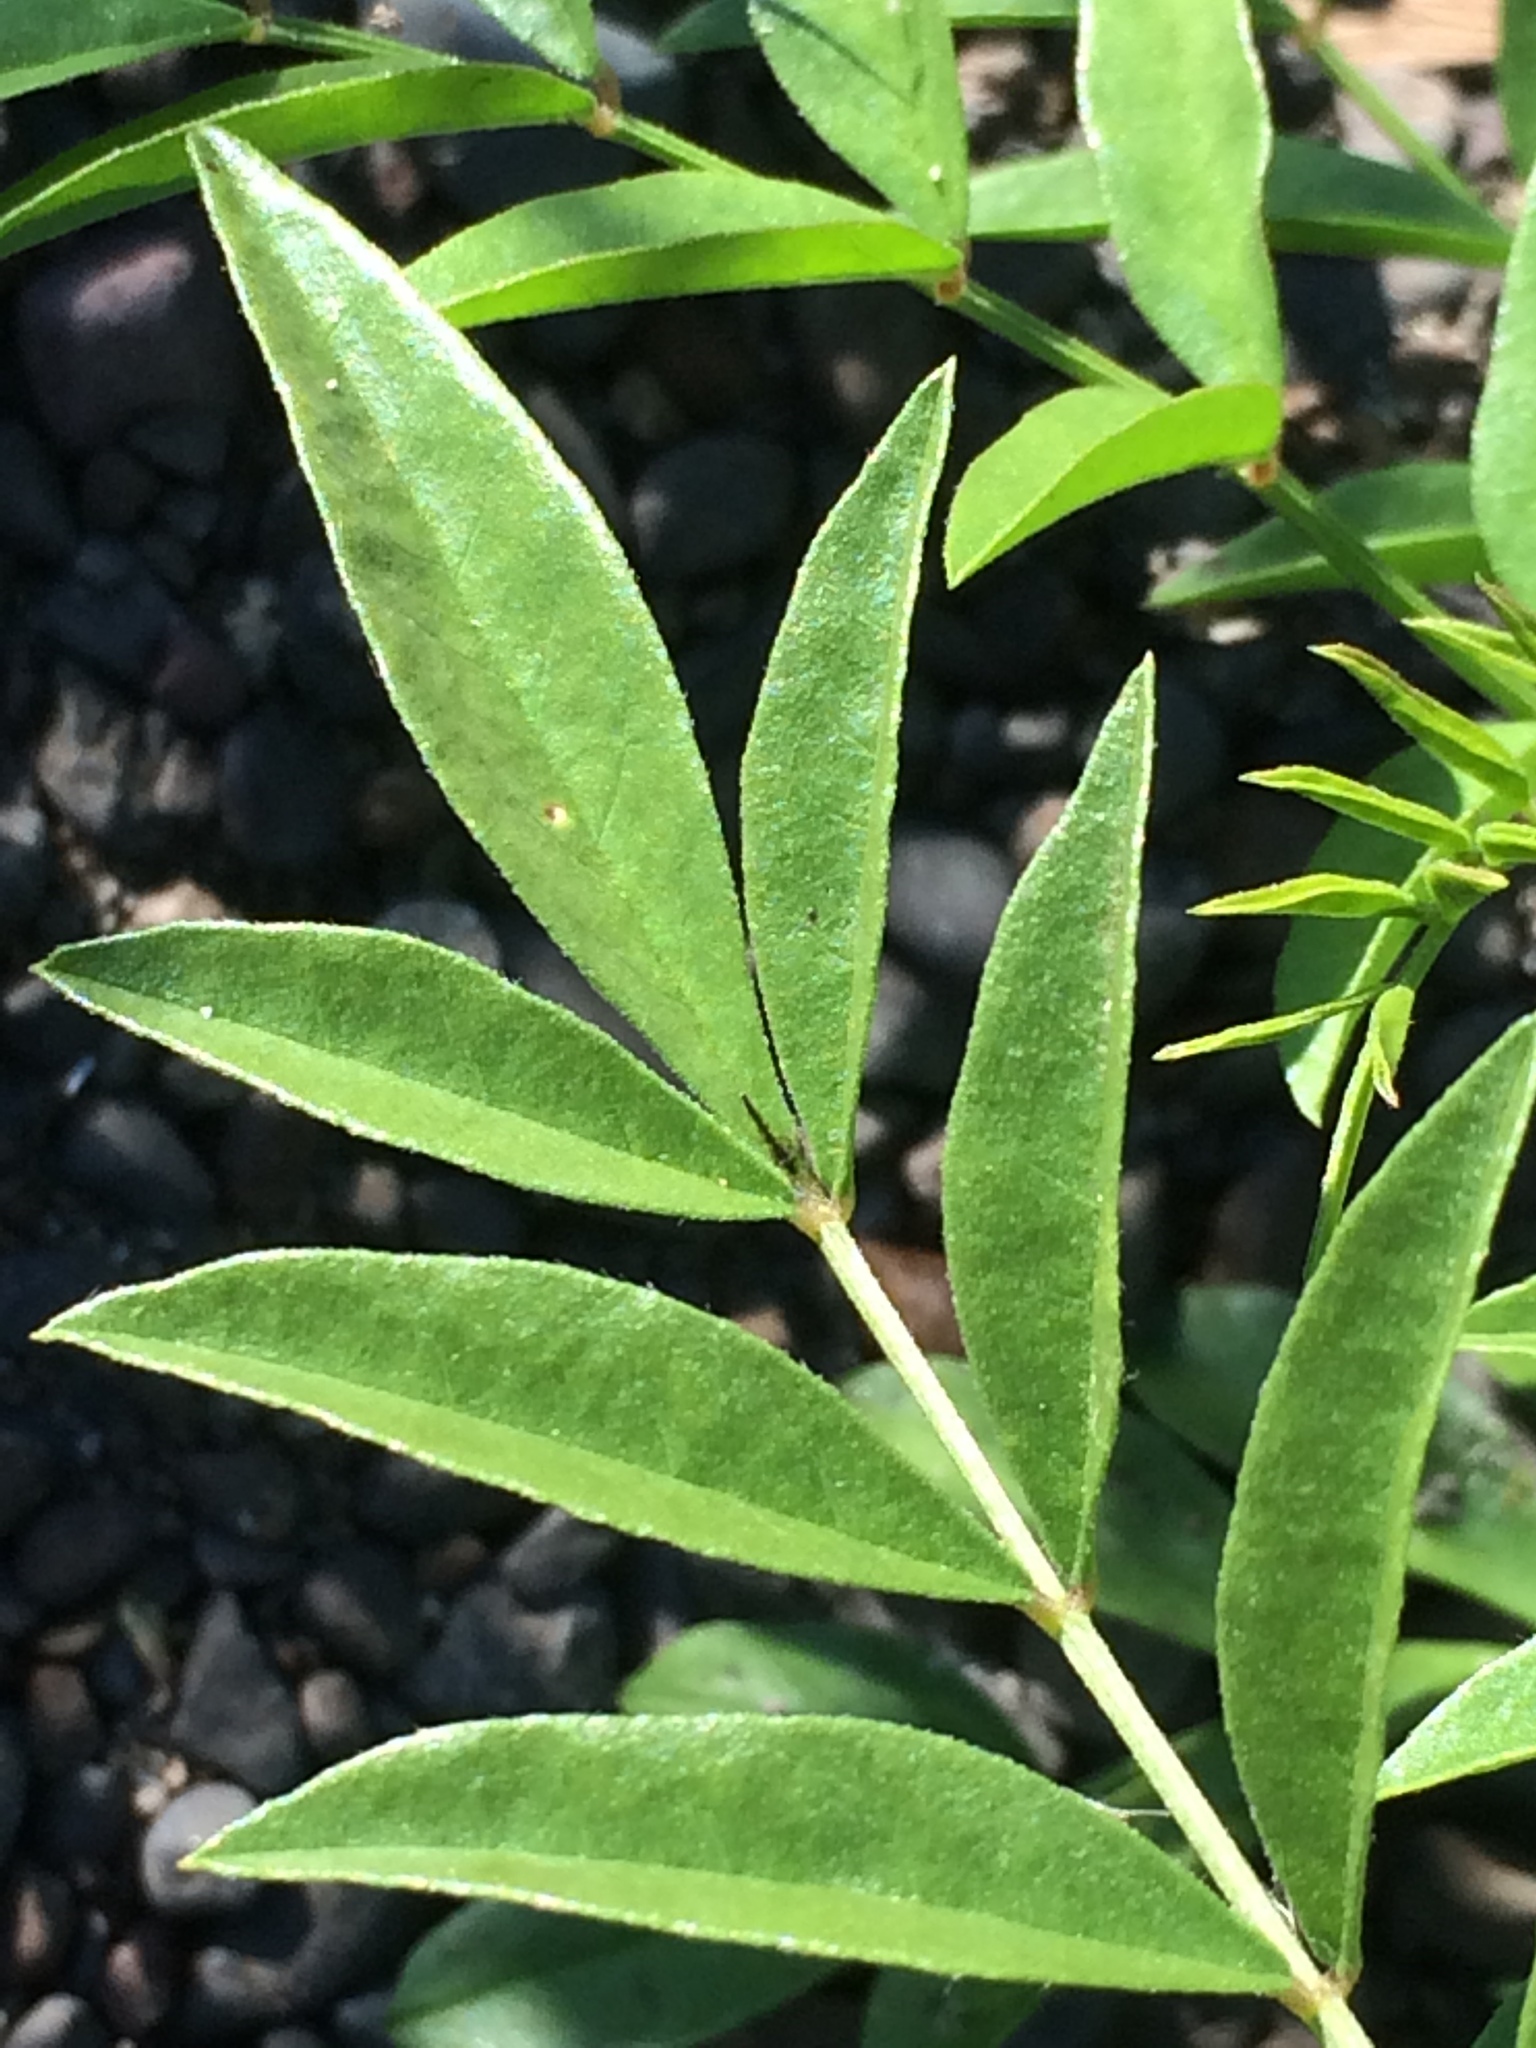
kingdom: Plantae
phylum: Tracheophyta
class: Magnoliopsida
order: Fabales
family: Fabaceae
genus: Glycyrrhiza
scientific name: Glycyrrhiza lepidota
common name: American liquorice
